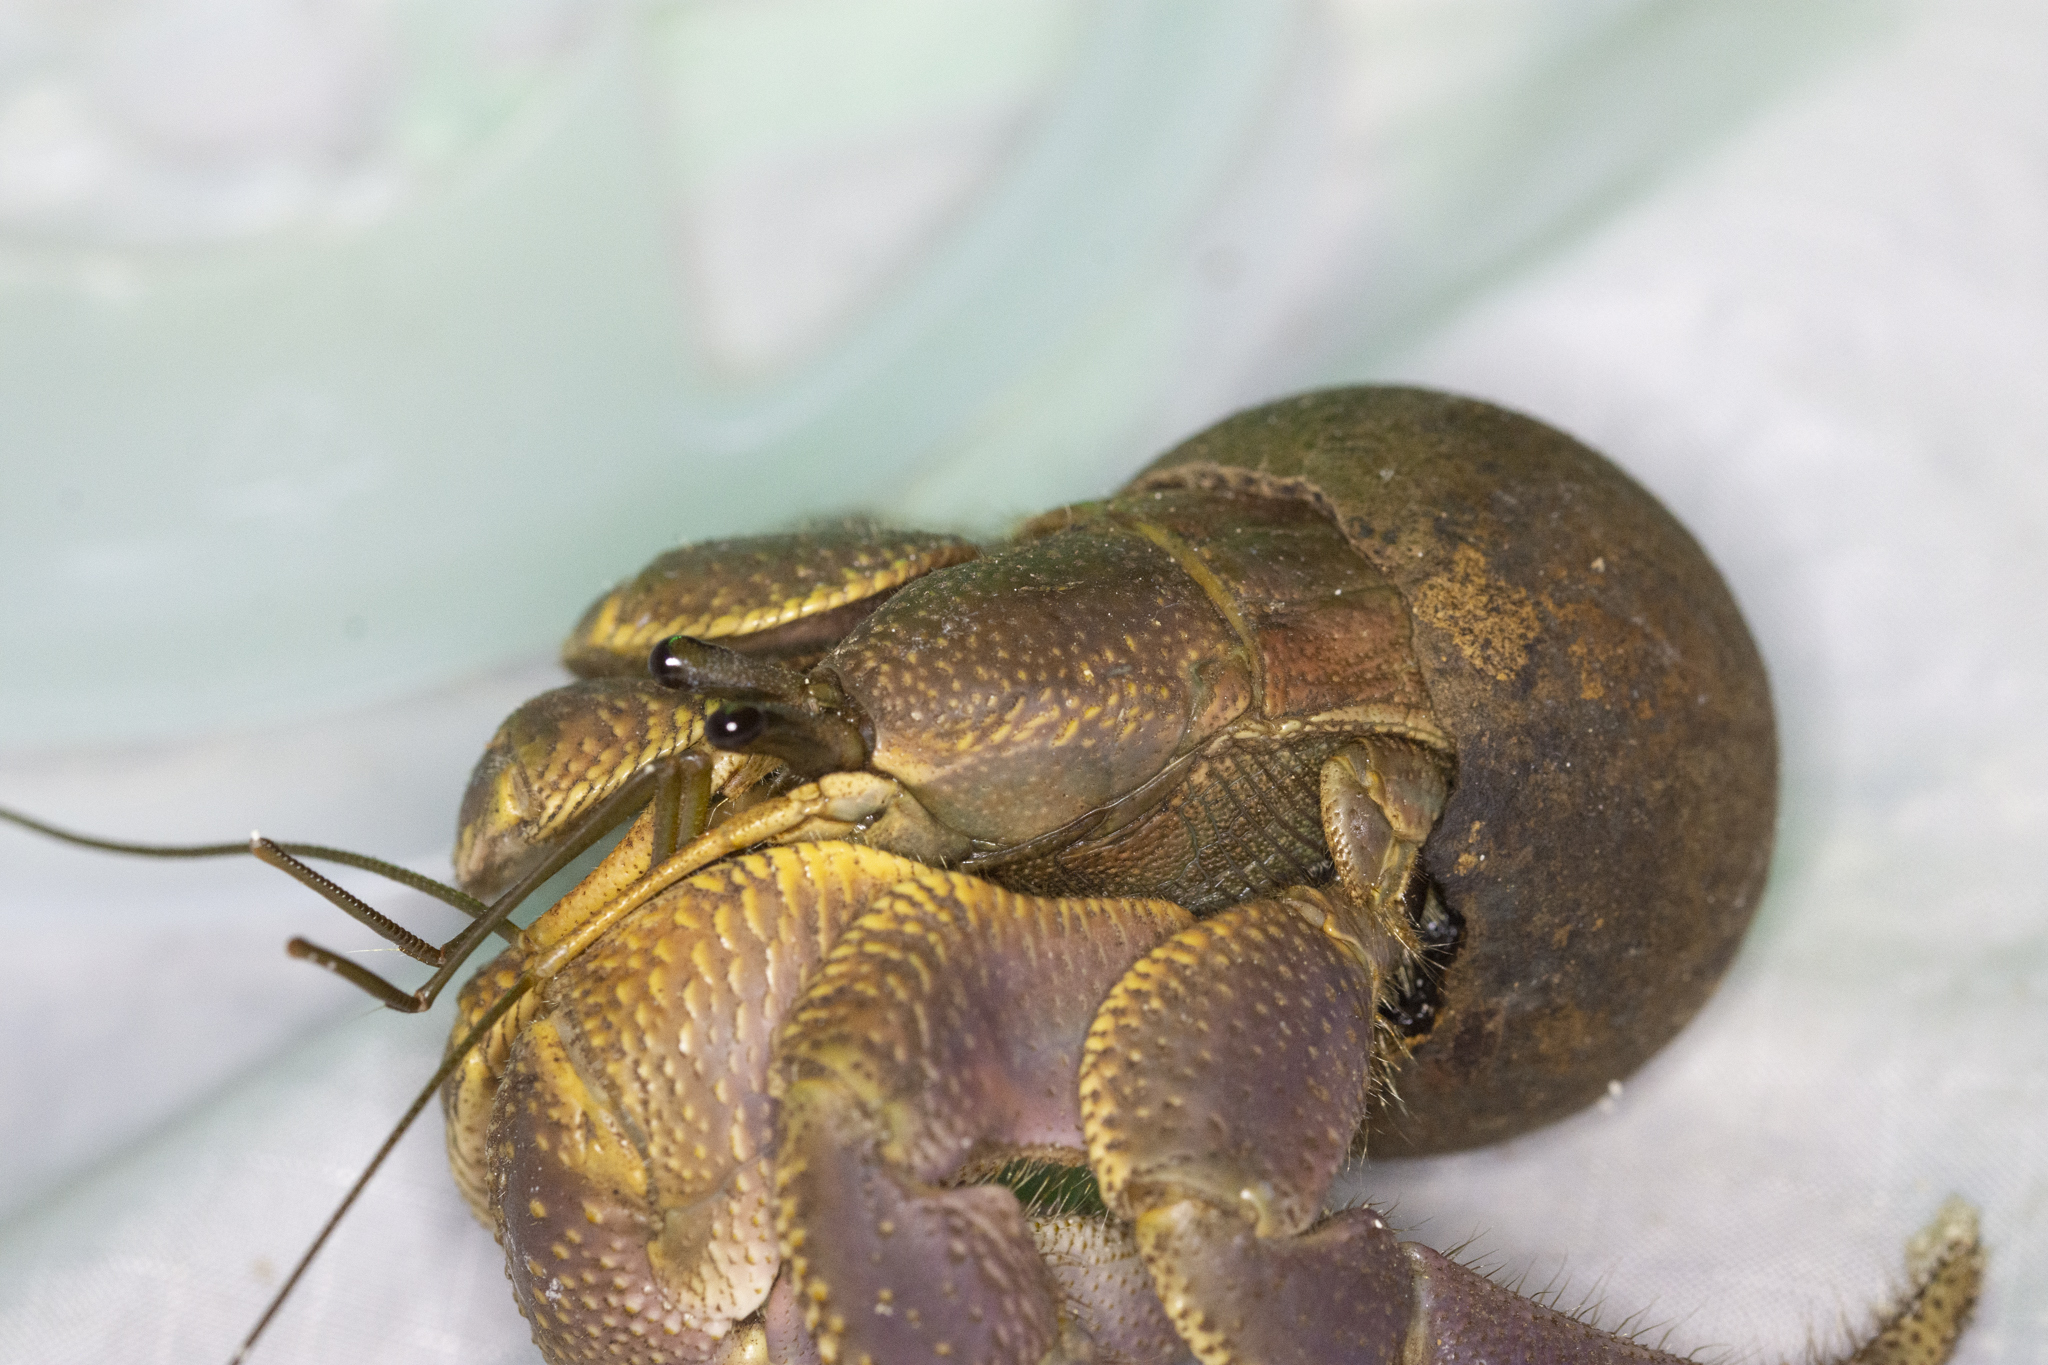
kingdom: Animalia
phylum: Arthropoda
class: Malacostraca
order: Decapoda
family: Coenobitidae
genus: Coenobita
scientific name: Coenobita brevimanus
